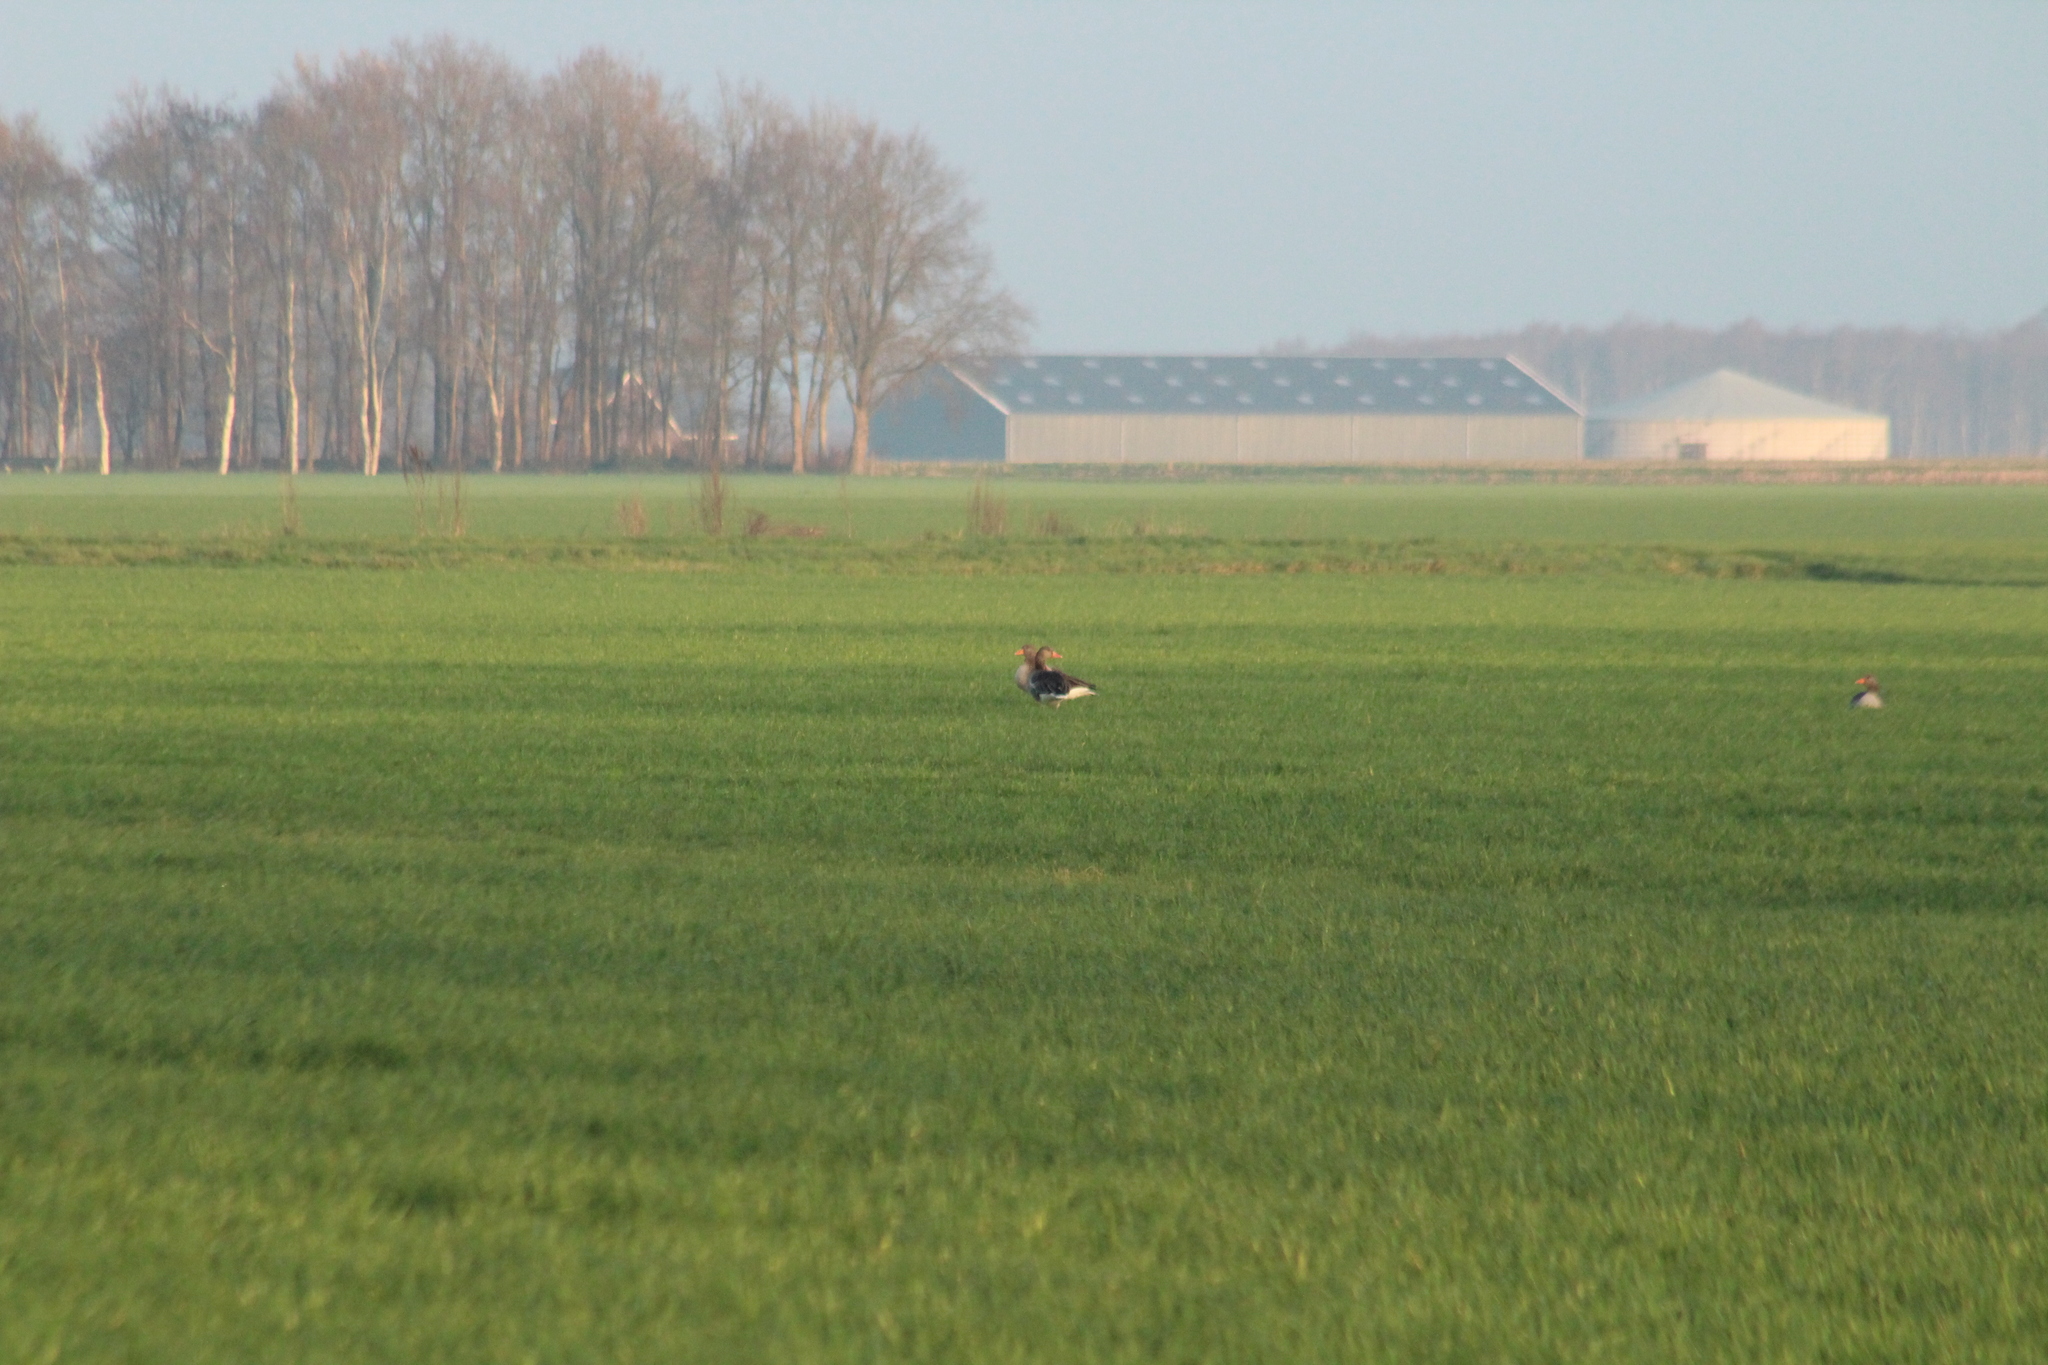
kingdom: Animalia
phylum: Chordata
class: Aves
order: Anseriformes
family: Anatidae
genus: Anser
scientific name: Anser anser
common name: Greylag goose
